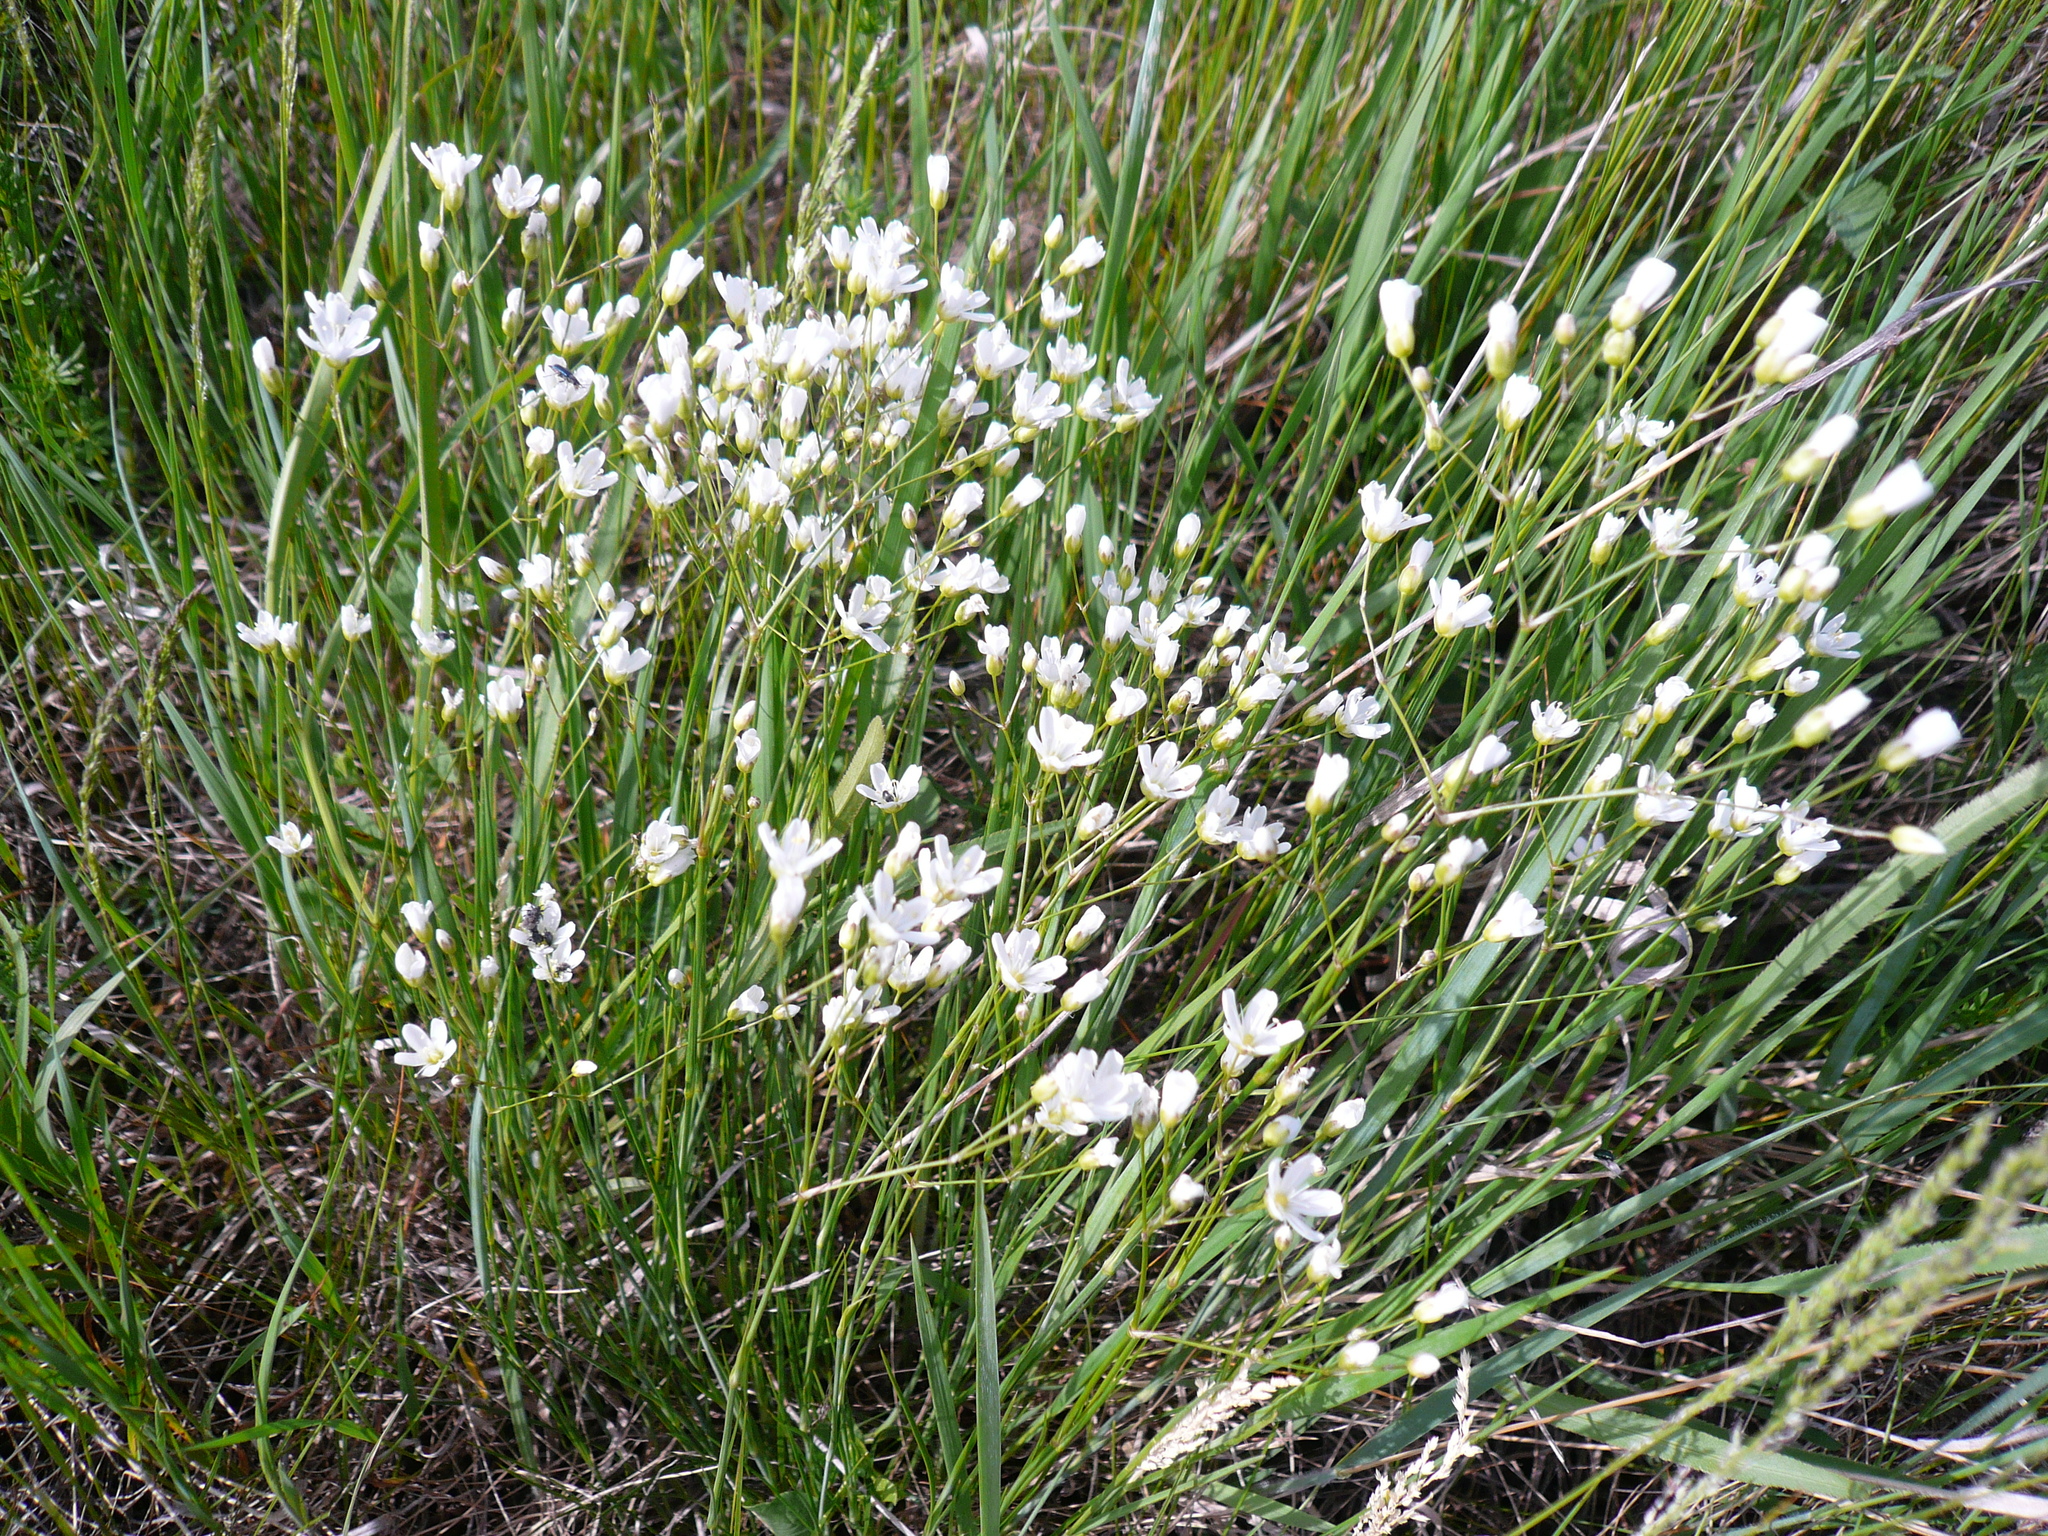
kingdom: Plantae
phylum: Tracheophyta
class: Magnoliopsida
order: Caryophyllales
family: Caryophyllaceae
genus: Eremogone
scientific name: Eremogone saxatilis
